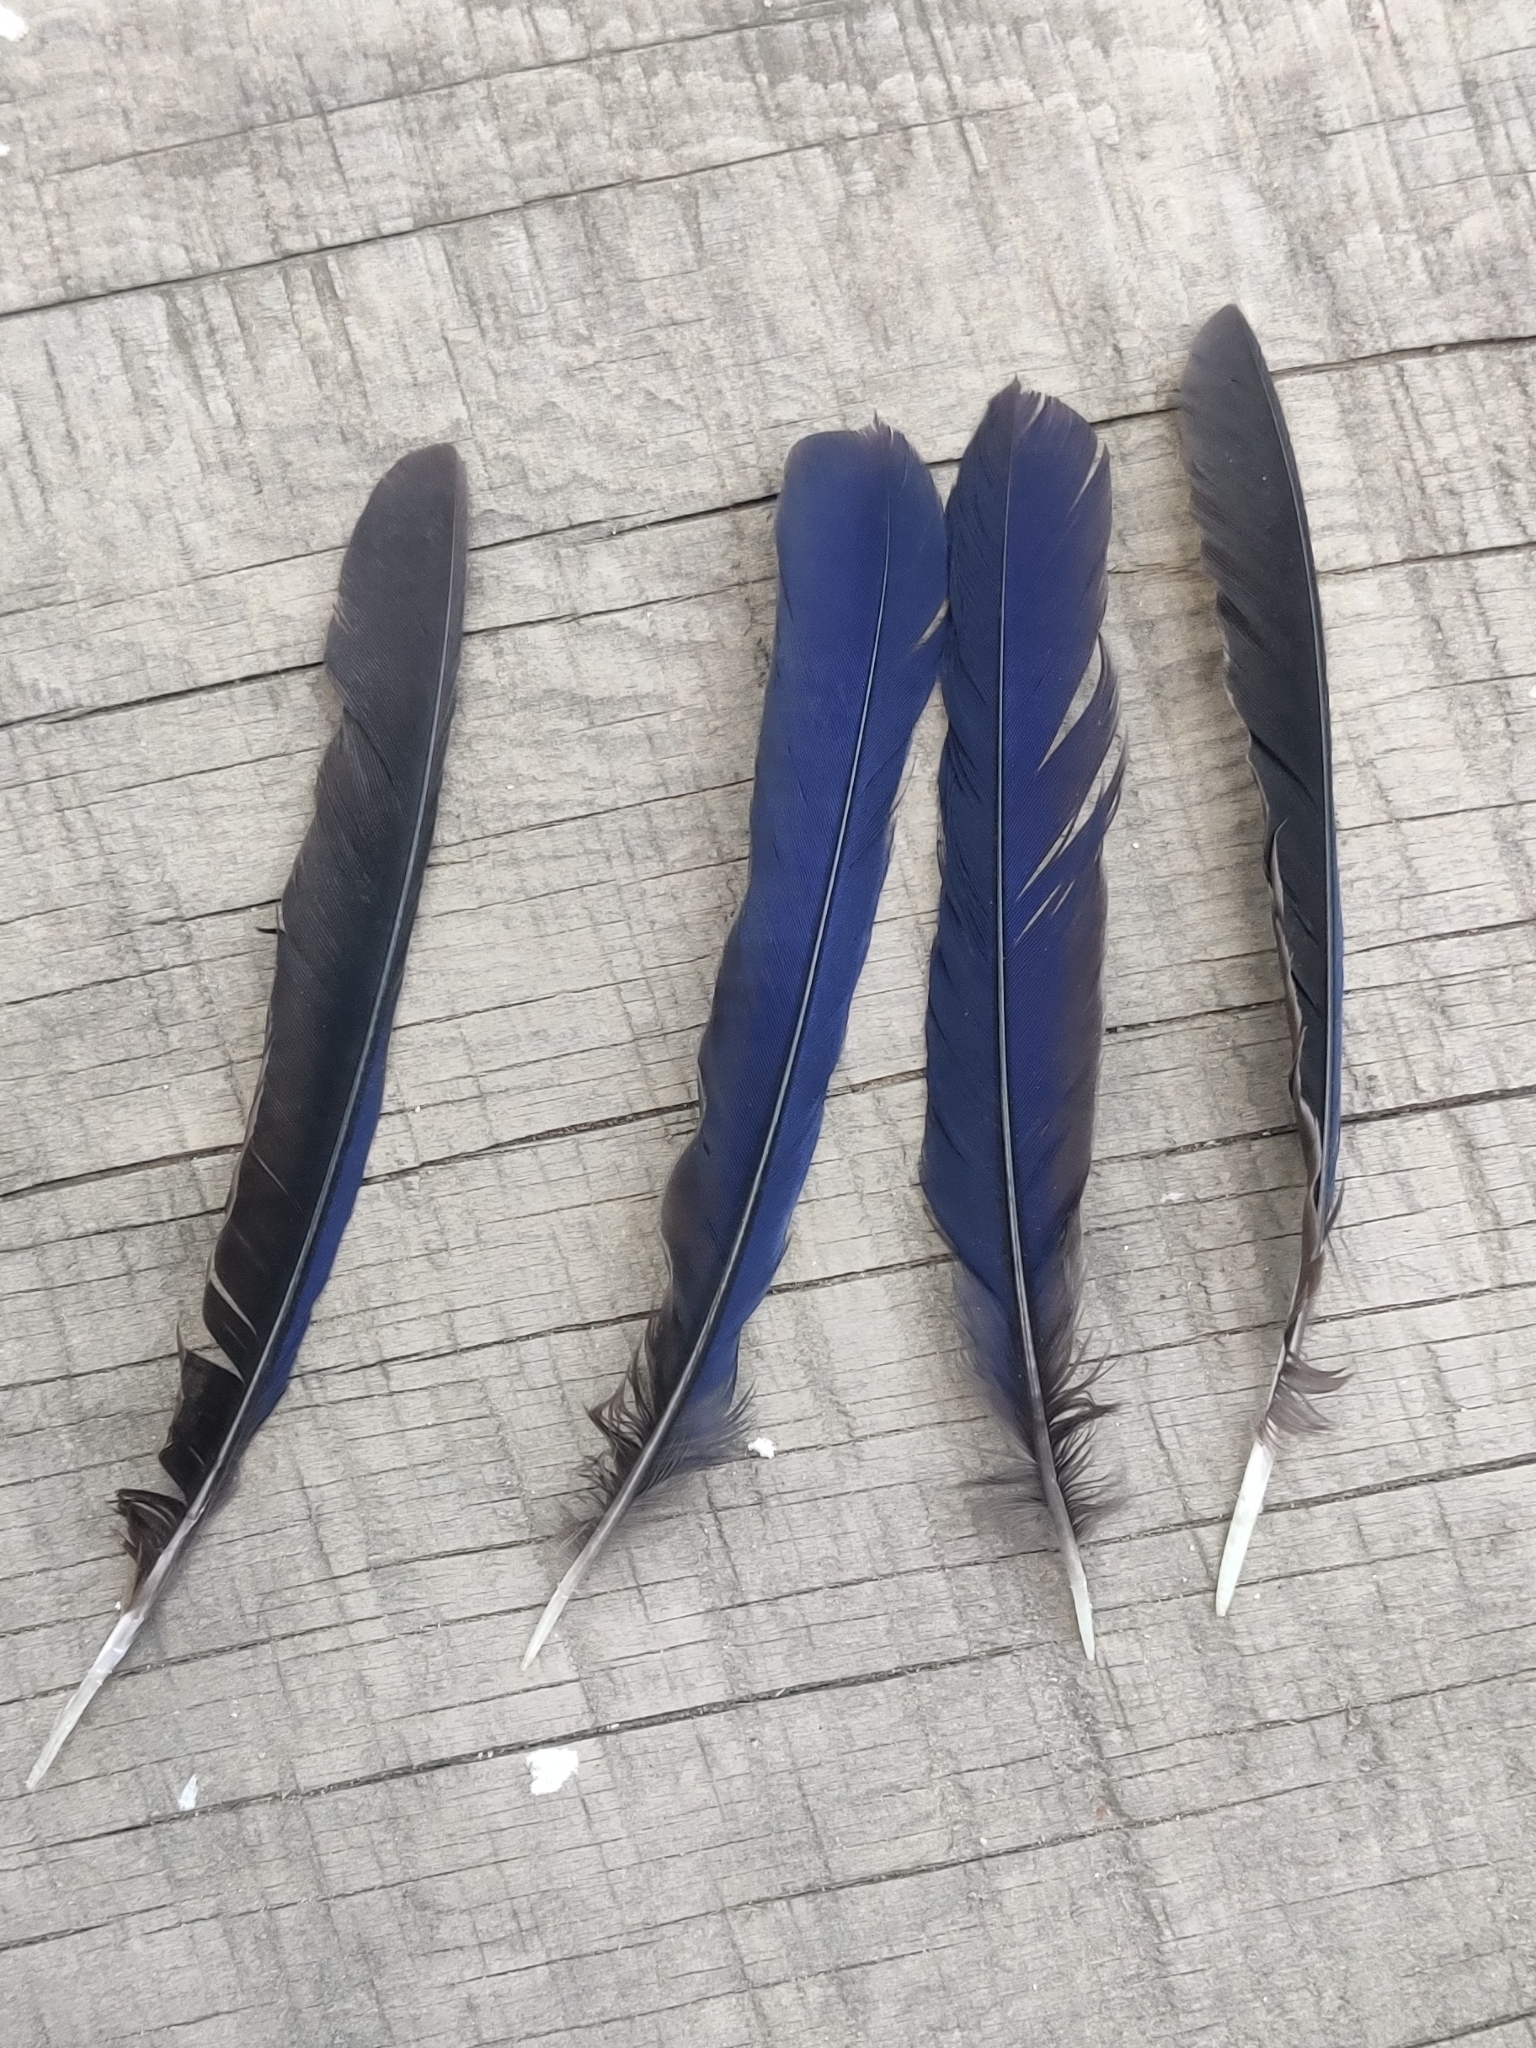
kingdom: Animalia
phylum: Chordata
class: Aves
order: Passeriformes
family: Muscicapidae
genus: Myophonus
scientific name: Myophonus caeruleus
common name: Blue whistling-thrush
